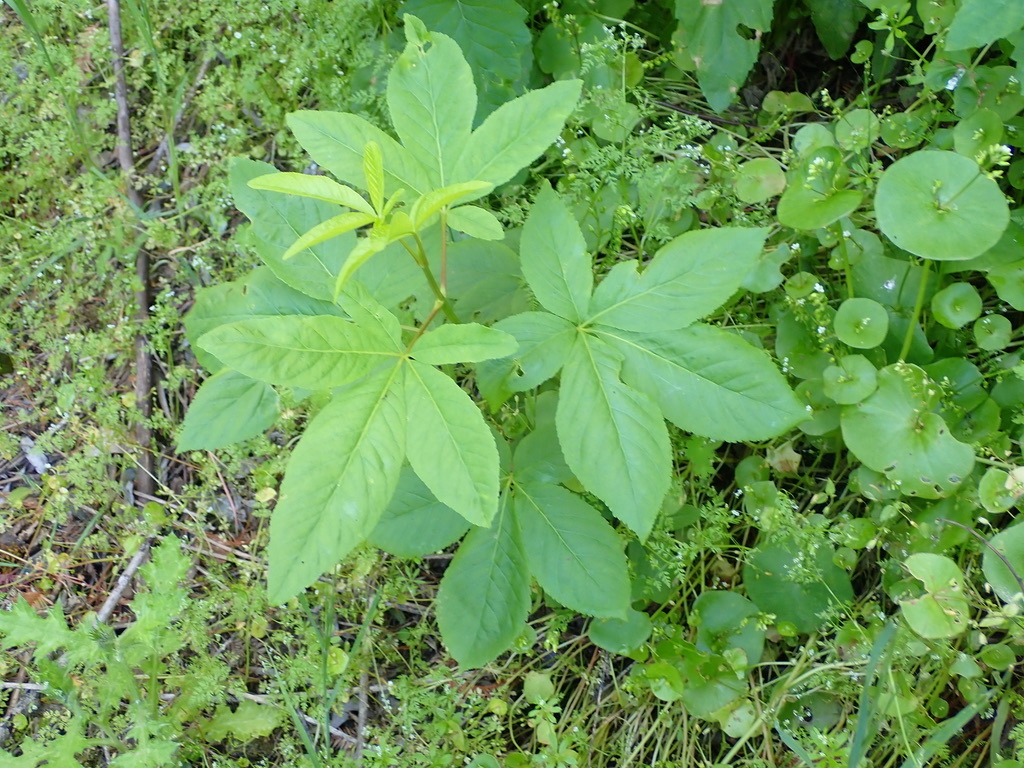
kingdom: Plantae
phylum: Tracheophyta
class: Magnoliopsida
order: Sapindales
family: Sapindaceae
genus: Aesculus
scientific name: Aesculus californica
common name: California buckeye
